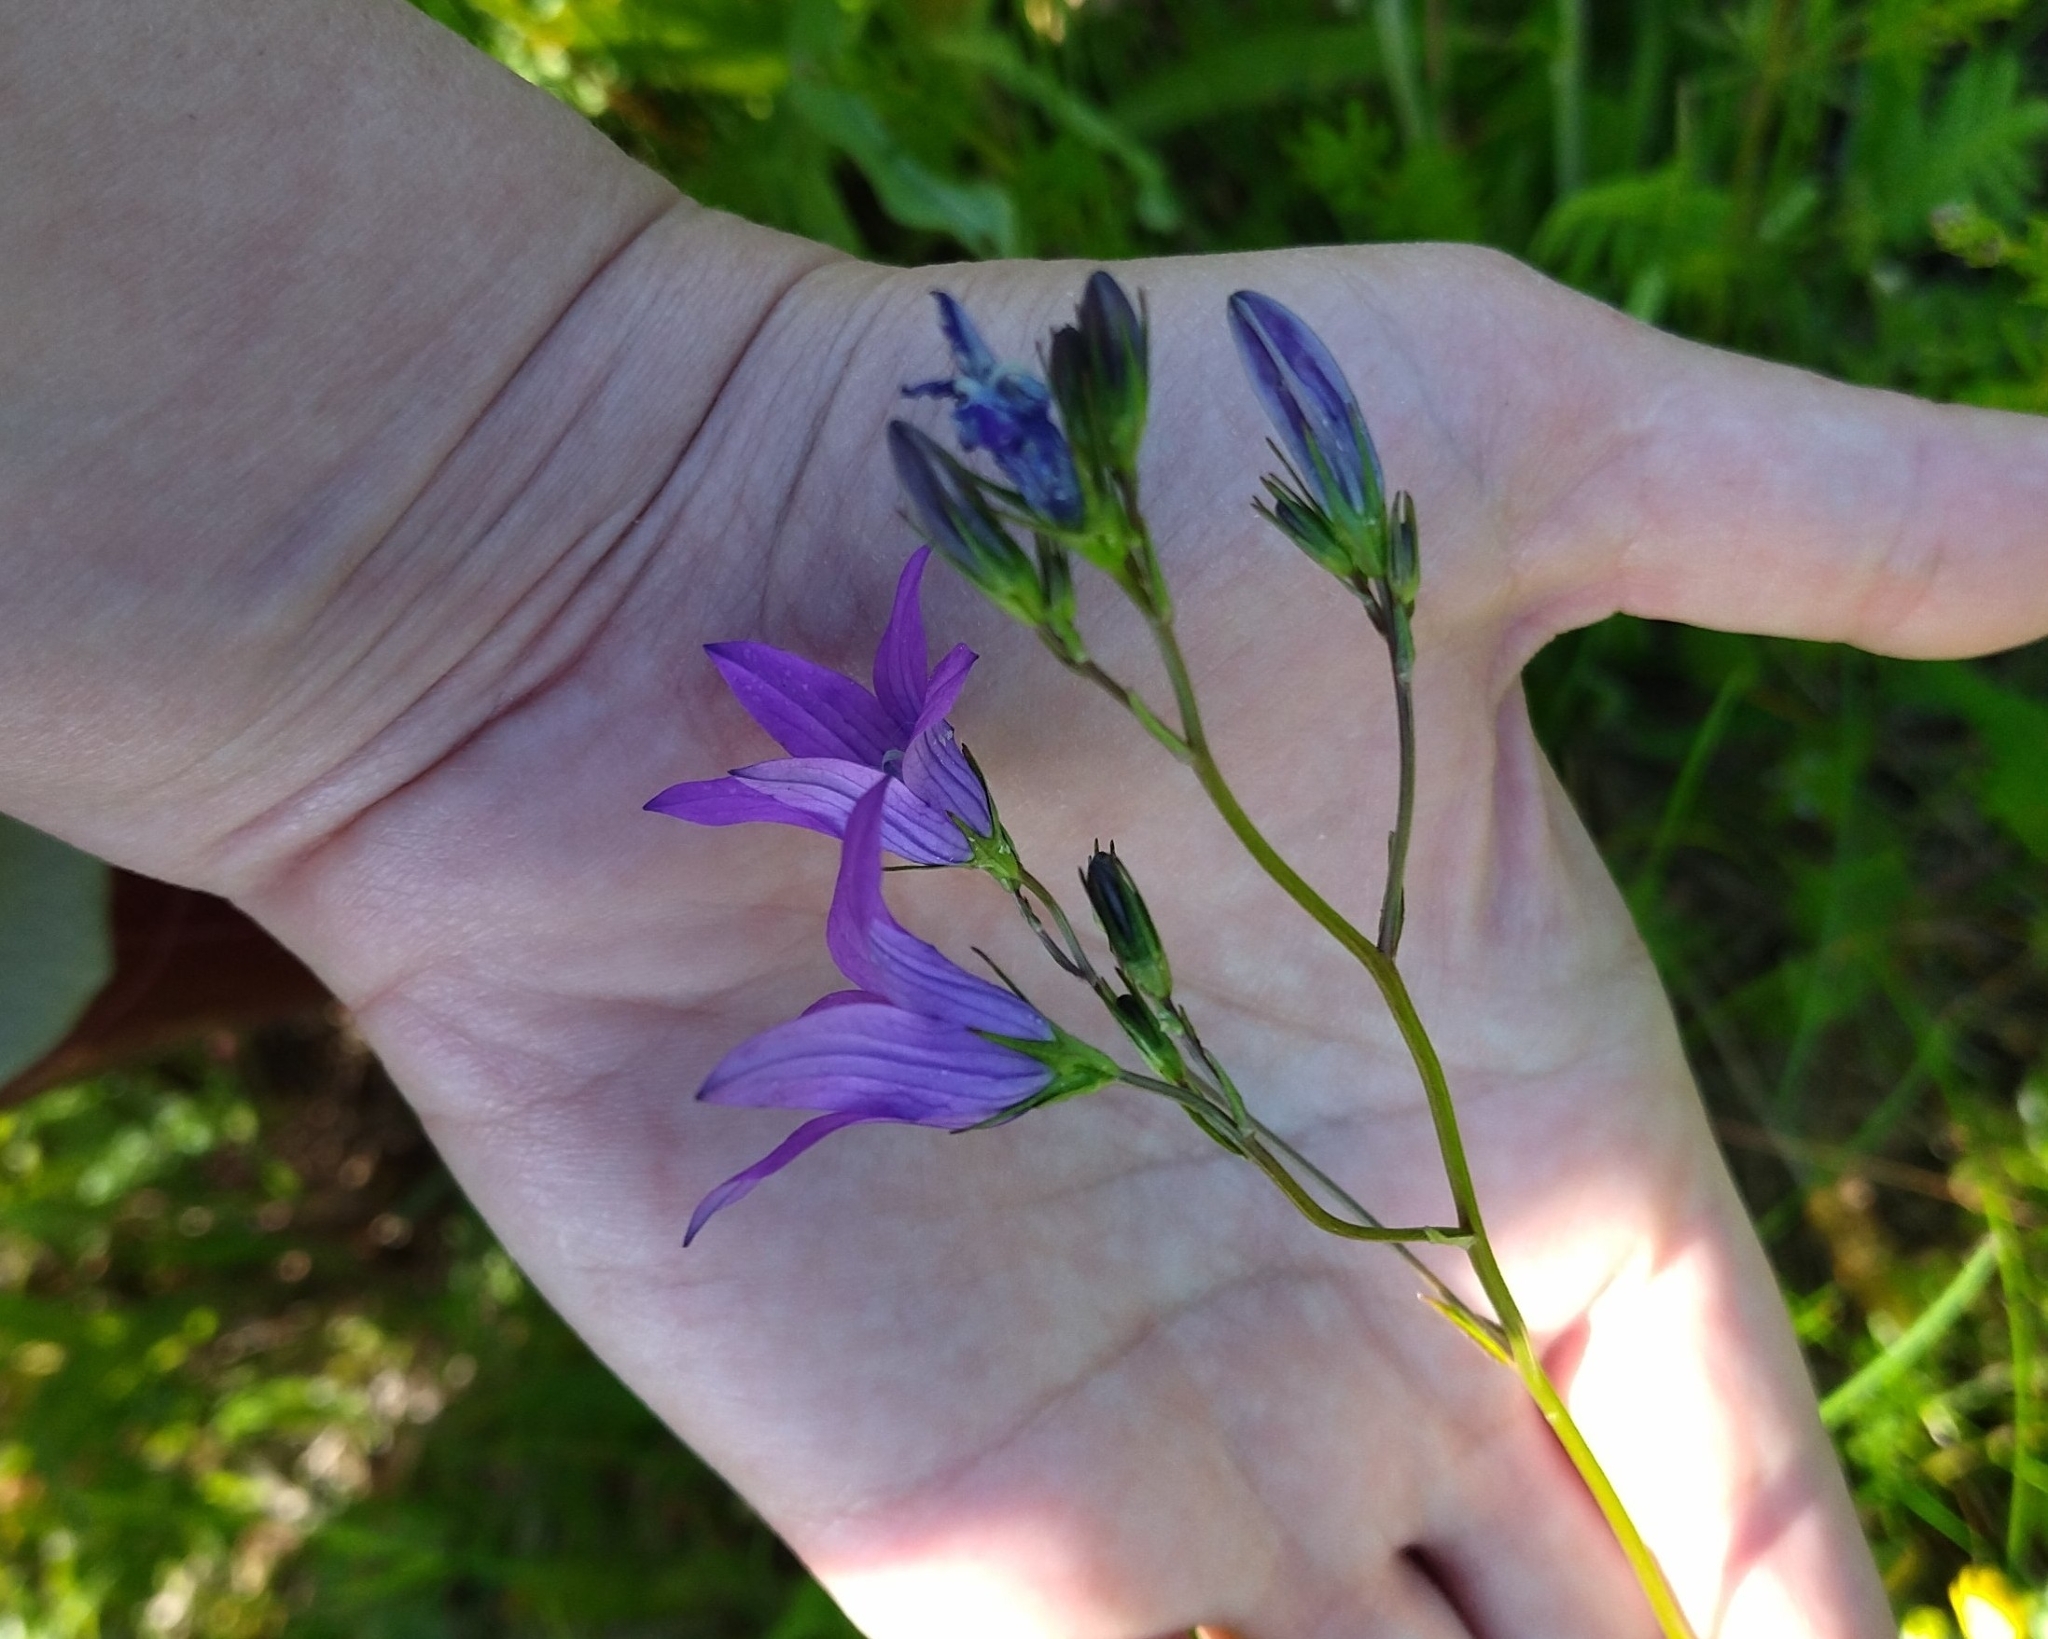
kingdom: Plantae
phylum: Tracheophyta
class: Magnoliopsida
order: Asterales
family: Campanulaceae
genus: Campanula
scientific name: Campanula patula
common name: Spreading bellflower
